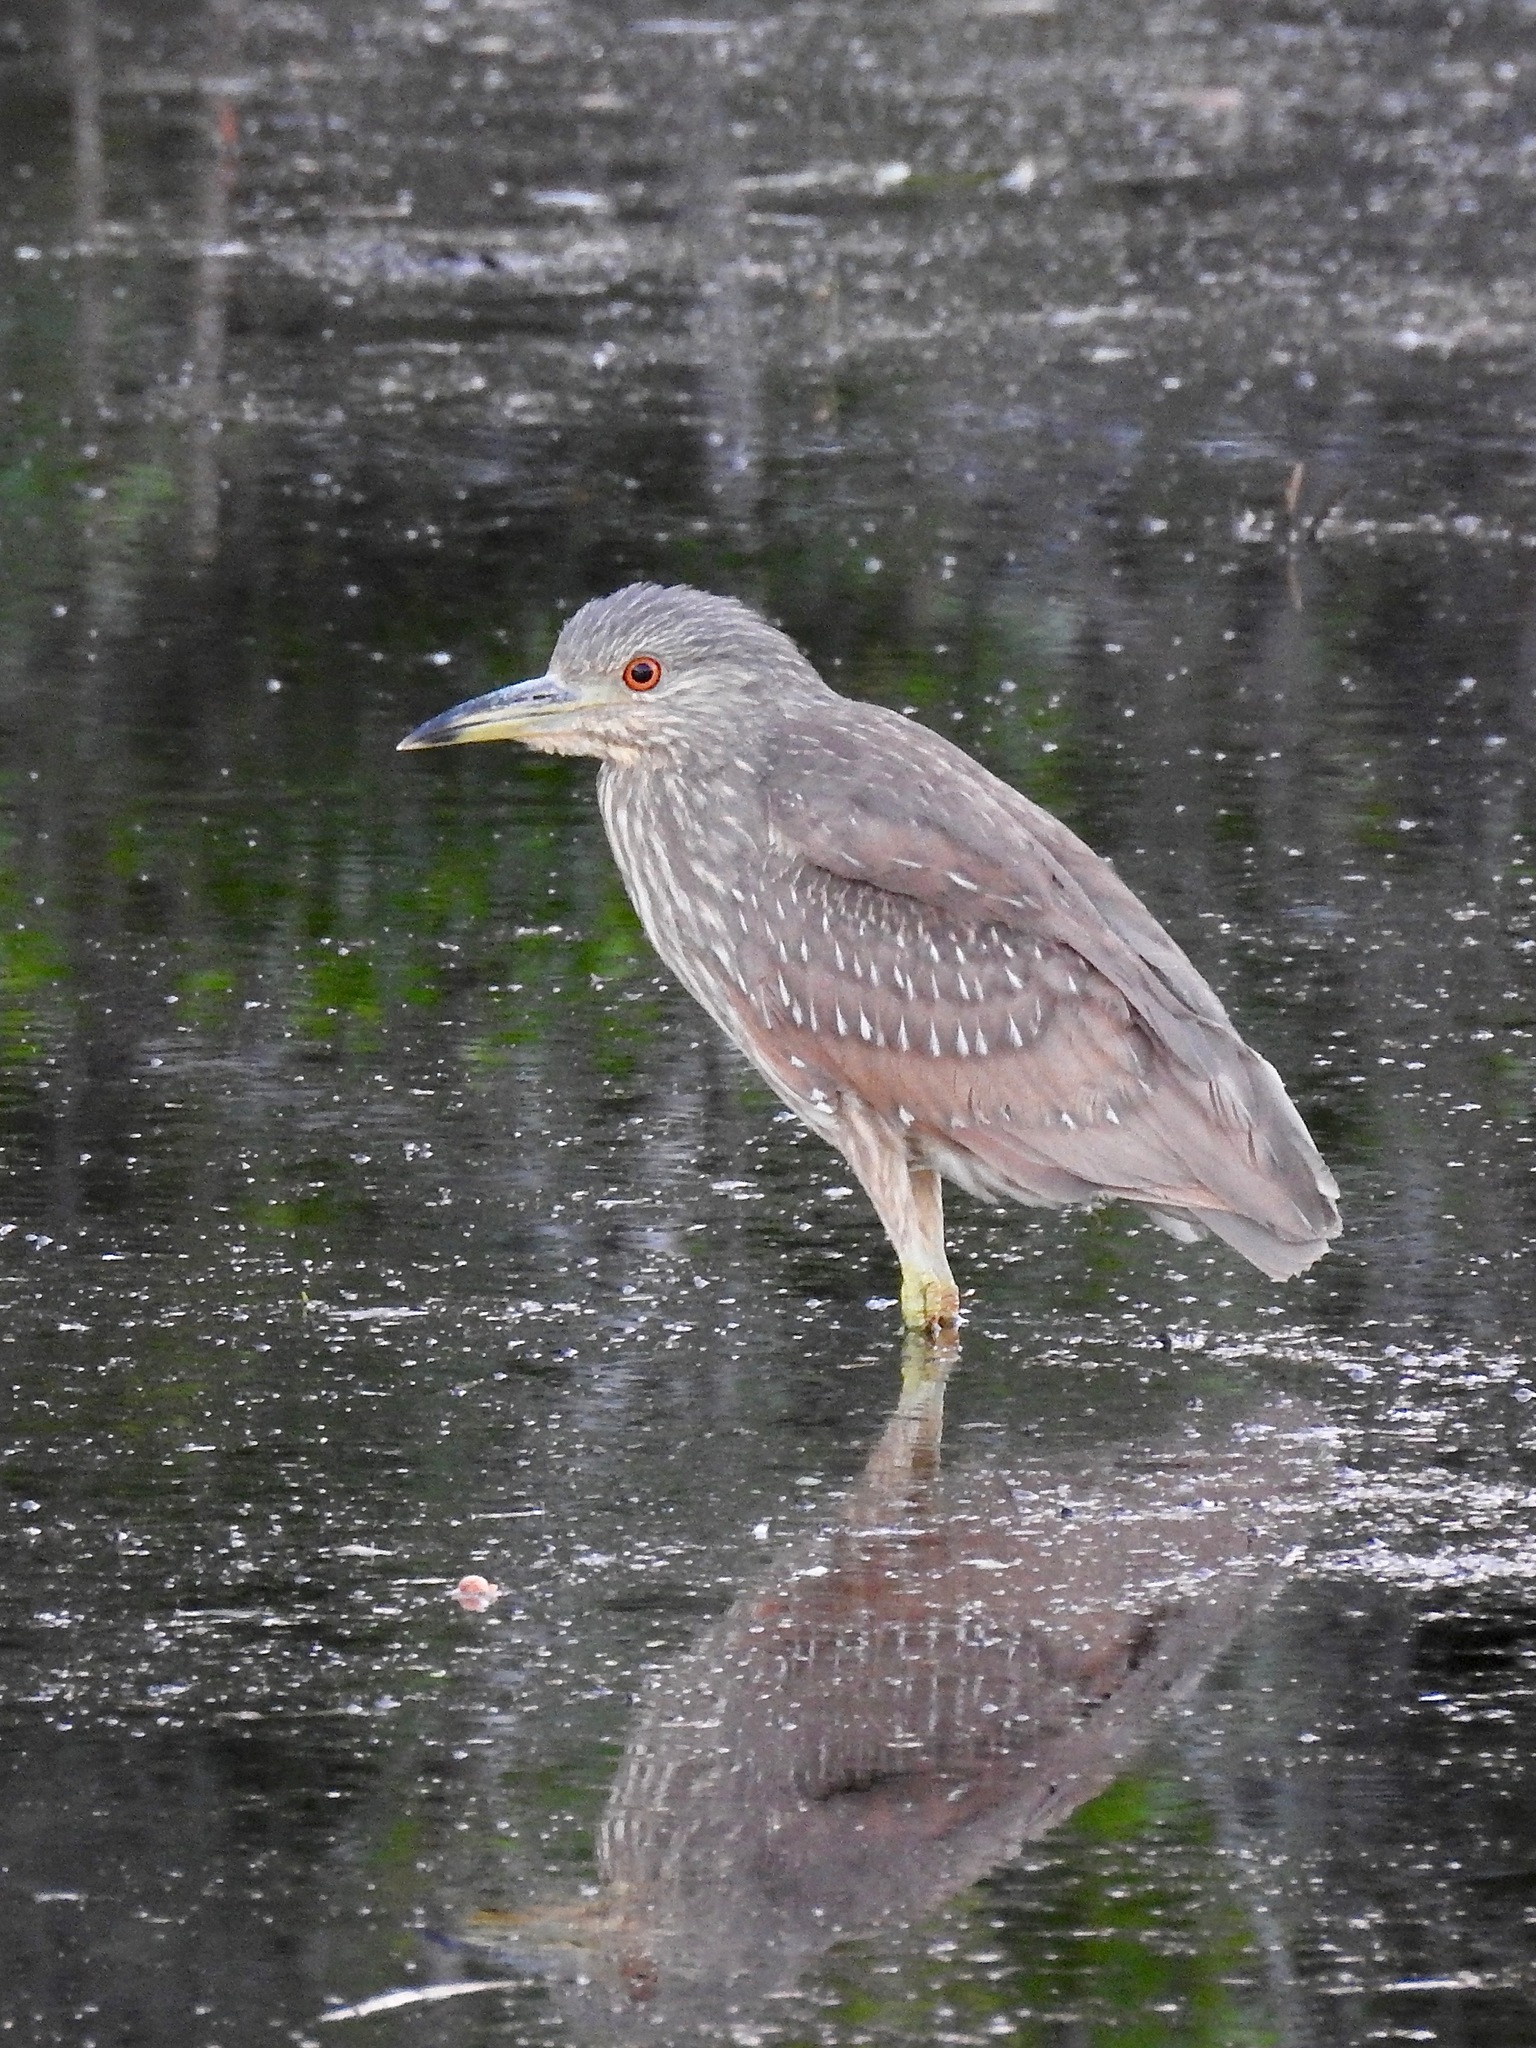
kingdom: Animalia
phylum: Chordata
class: Aves
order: Pelecaniformes
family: Ardeidae
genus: Nycticorax
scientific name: Nycticorax nycticorax
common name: Black-crowned night heron
